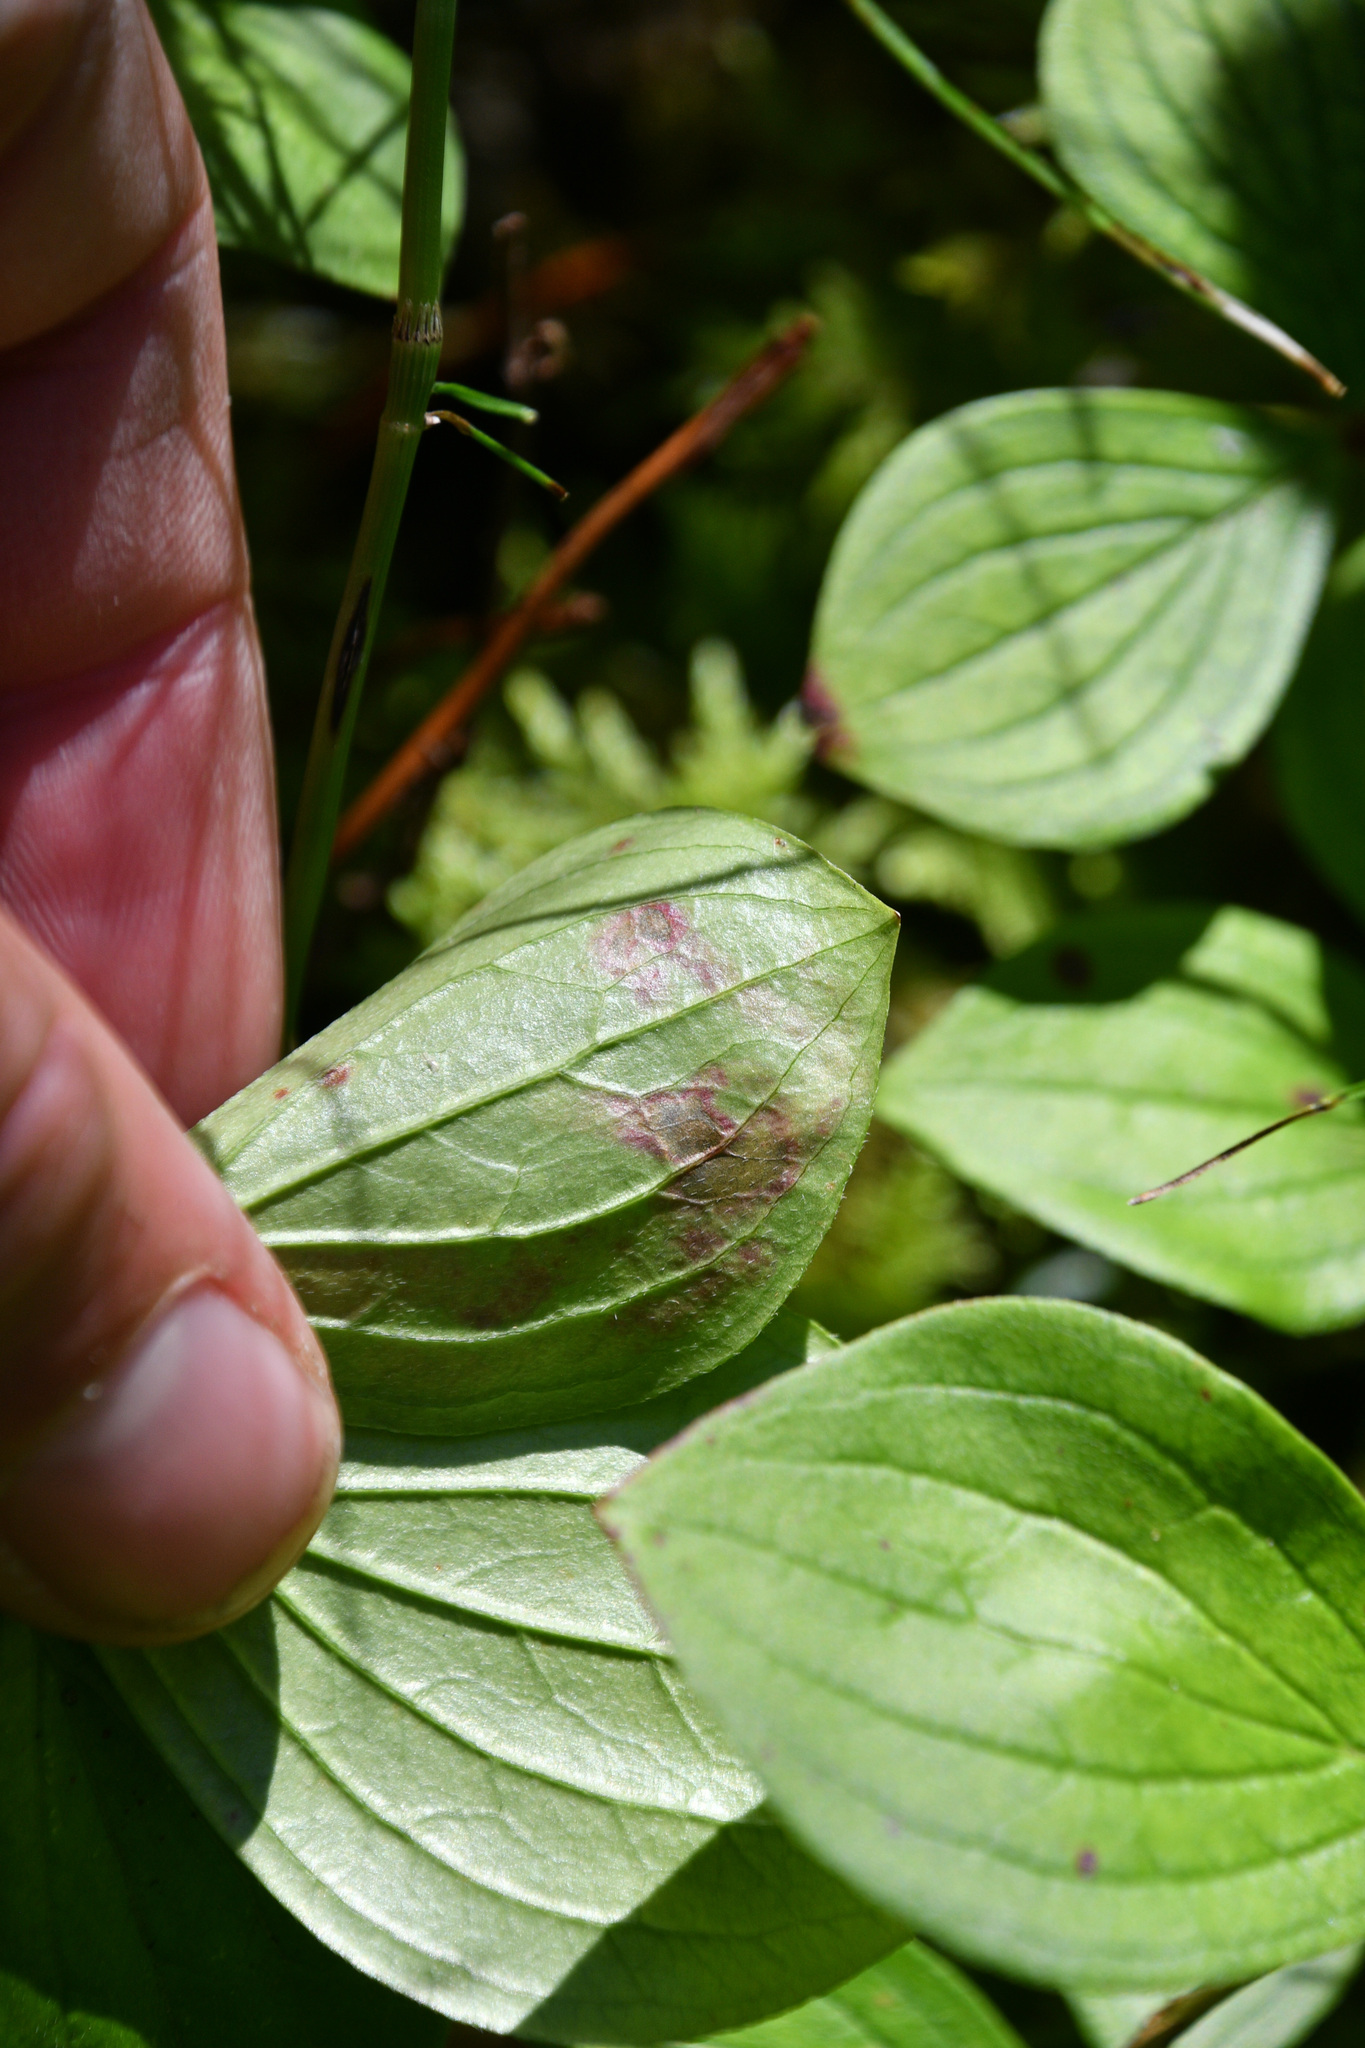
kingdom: Animalia
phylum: Arthropoda
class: Insecta
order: Diptera
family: Agromyzidae
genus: Phytomyza
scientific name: Phytomyza agromyzina
